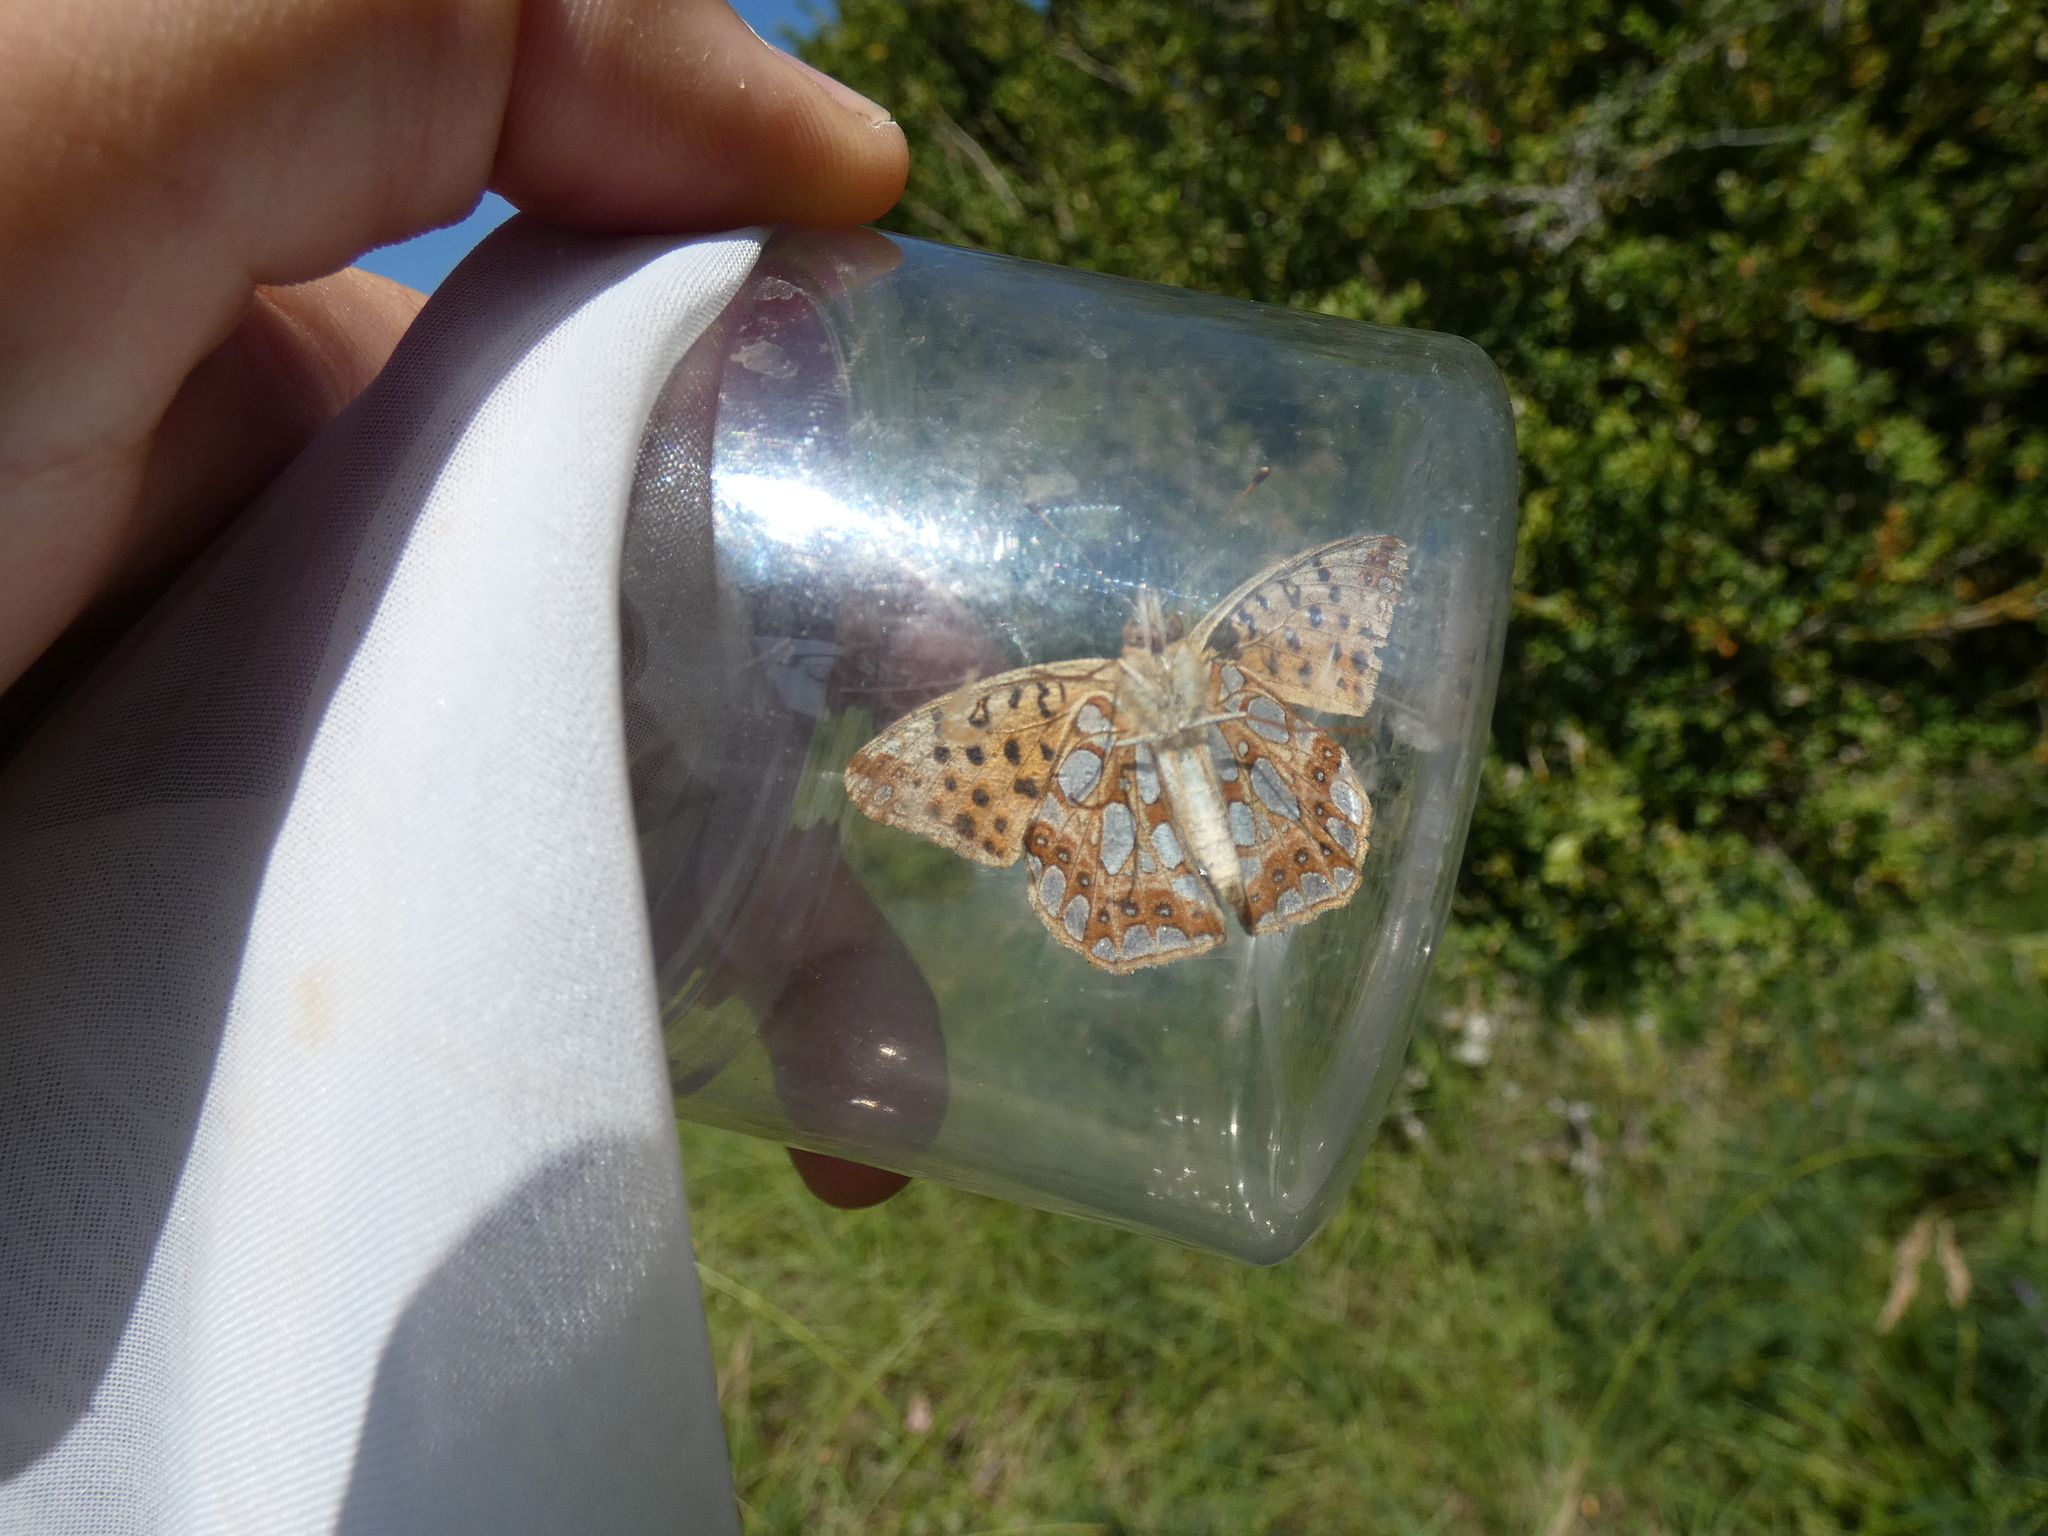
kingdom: Animalia
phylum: Arthropoda
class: Insecta
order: Lepidoptera
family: Nymphalidae
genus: Issoria
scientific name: Issoria lathonia
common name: Queen of spain fritillary
